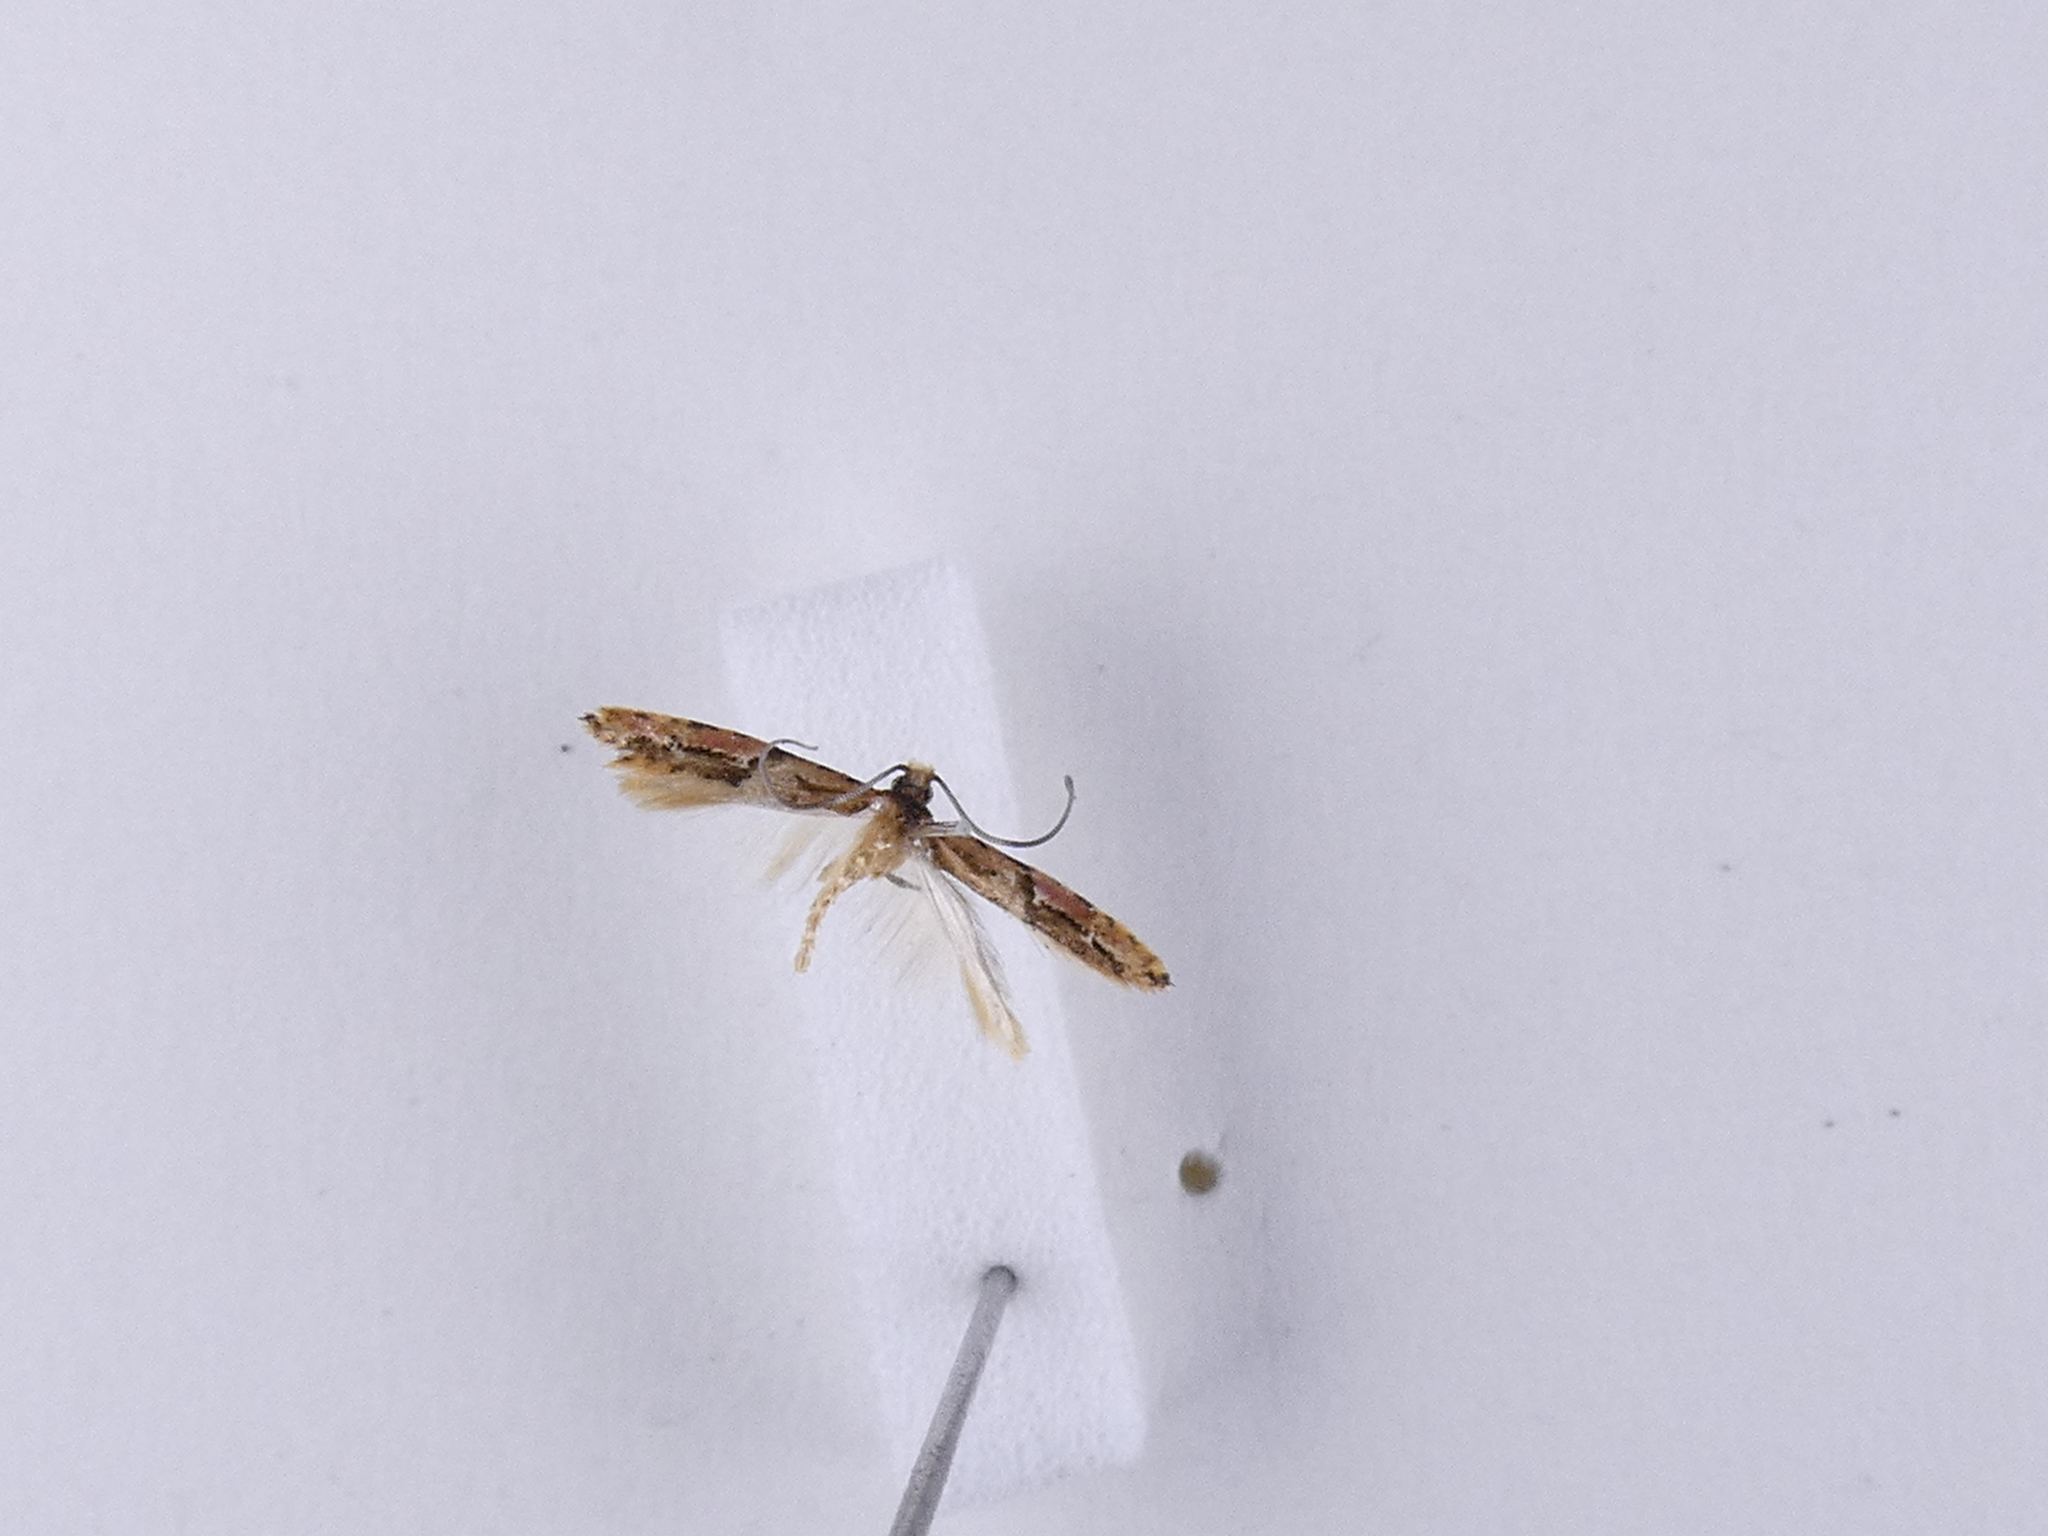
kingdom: Animalia
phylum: Arthropoda
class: Insecta
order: Lepidoptera
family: Tineidae
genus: Crypsitricha
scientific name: Crypsitricha roseata
